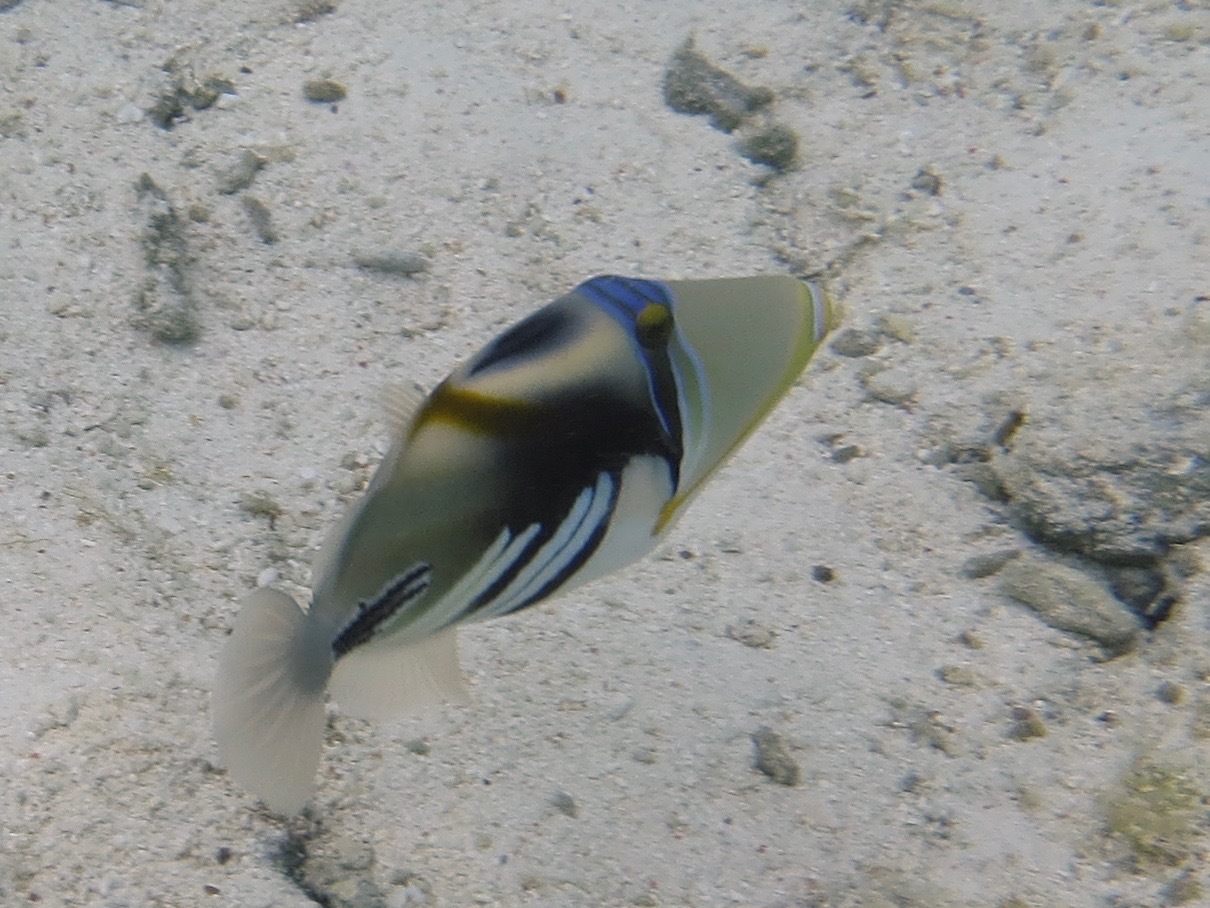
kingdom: Animalia
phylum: Chordata
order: Tetraodontiformes
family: Balistidae
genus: Rhinecanthus
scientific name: Rhinecanthus aculeatus
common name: White-banded triggerfish
